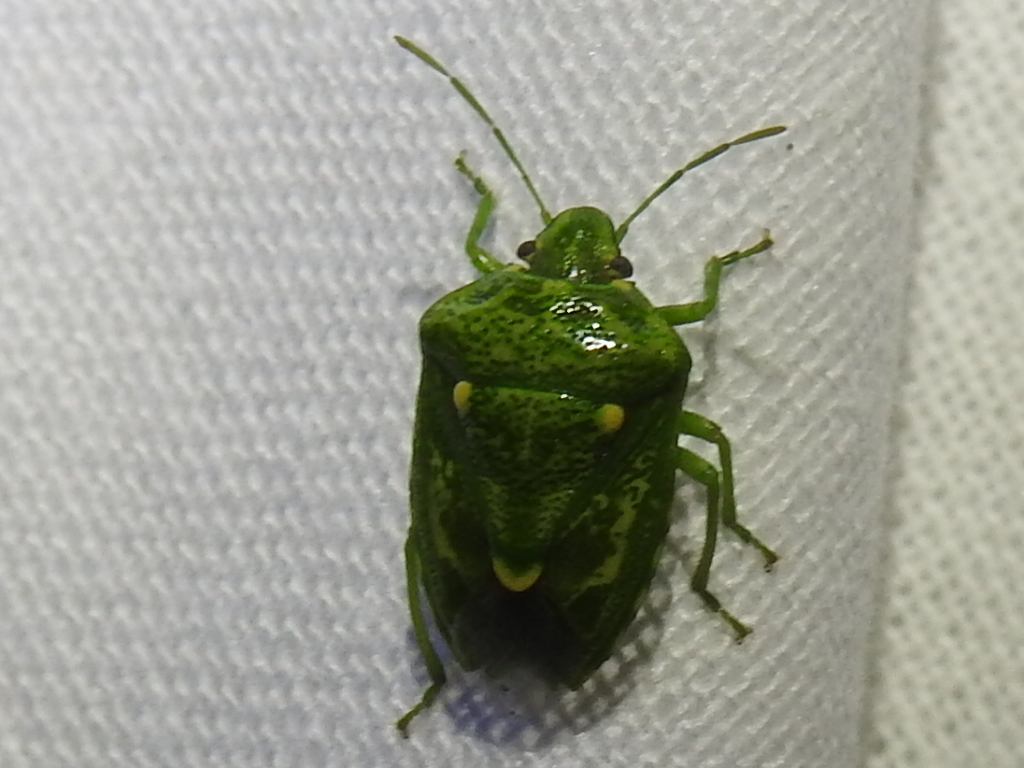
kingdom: Animalia
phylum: Arthropoda
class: Insecta
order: Hemiptera
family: Pentatomidae
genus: Banasa
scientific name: Banasa euchlora
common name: Cedar berry bug
